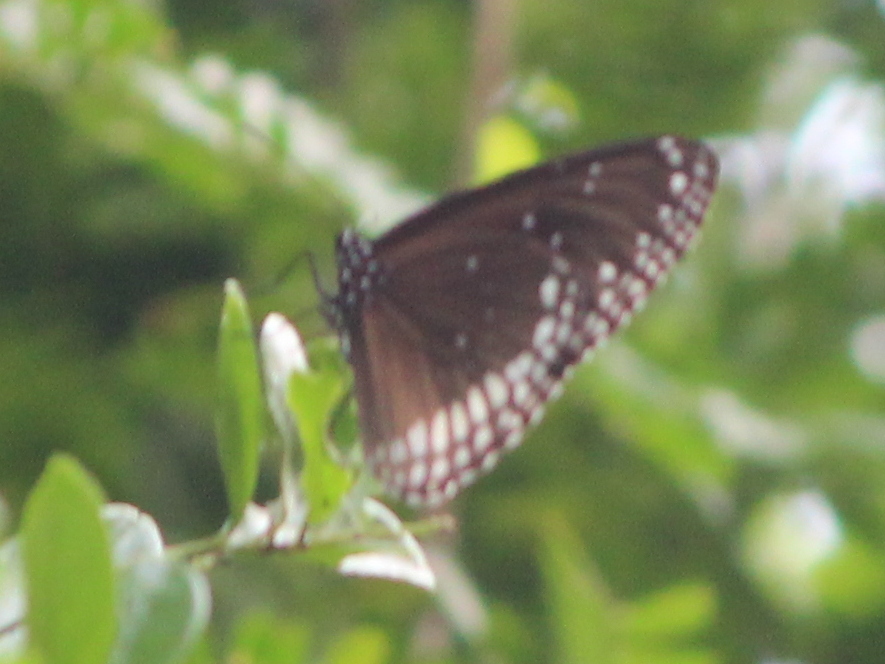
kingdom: Animalia
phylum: Arthropoda
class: Insecta
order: Lepidoptera
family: Nymphalidae
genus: Euploea
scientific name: Euploea sylvester
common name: Double-branded crow butterfly
